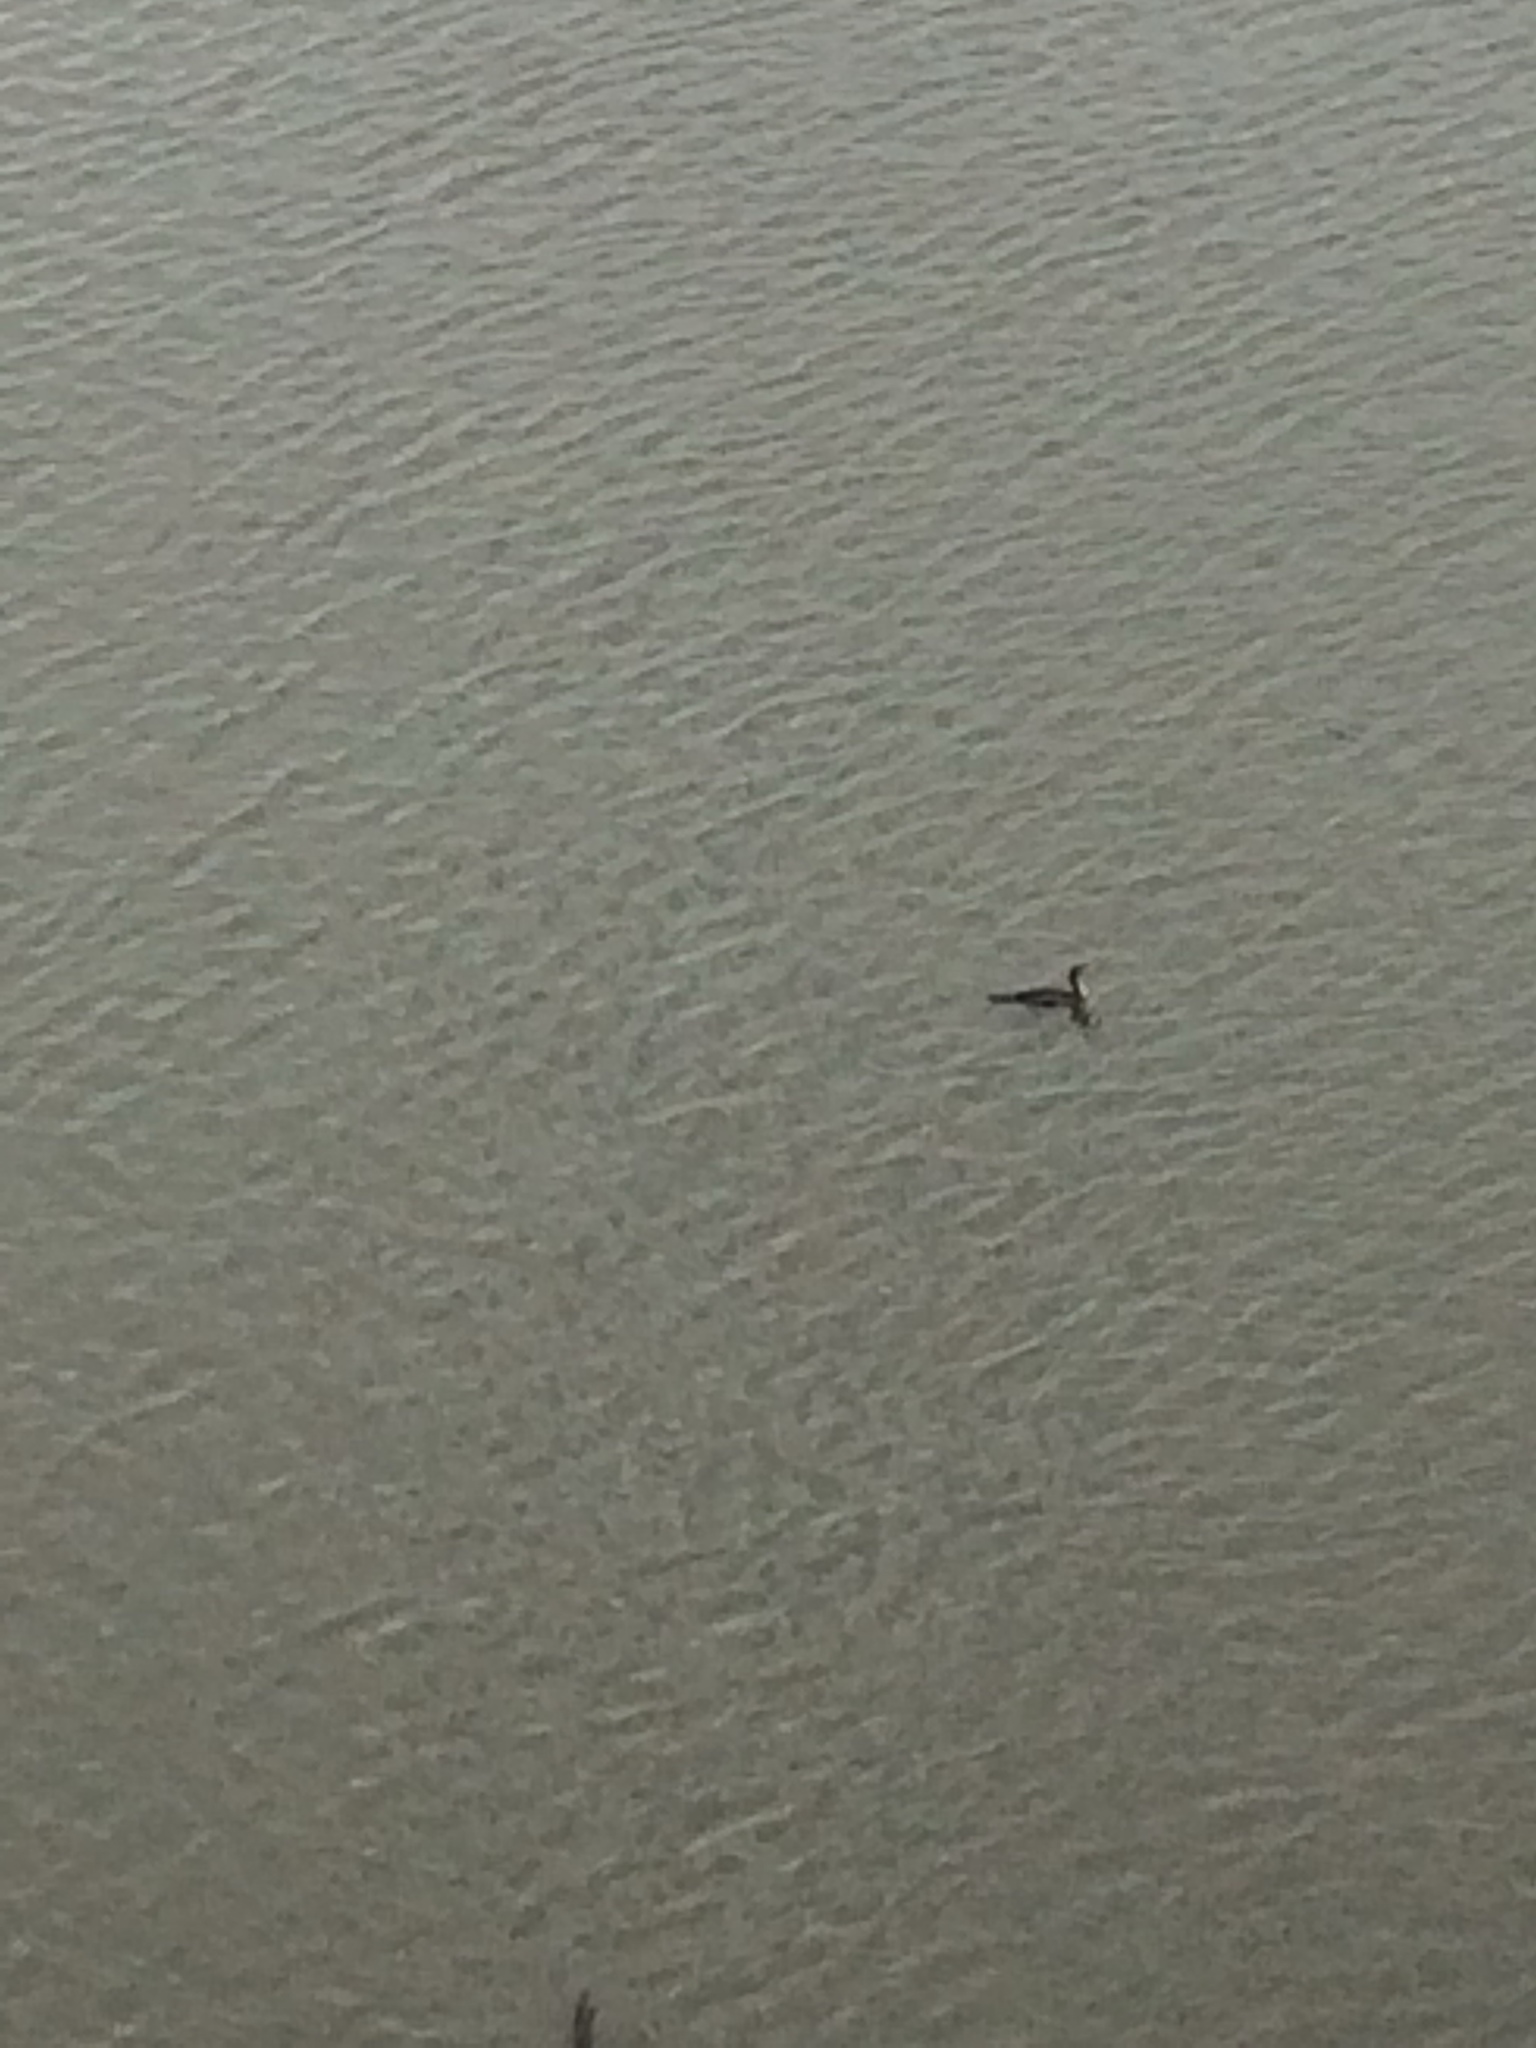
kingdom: Animalia
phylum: Chordata
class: Aves
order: Suliformes
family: Phalacrocoracidae
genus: Phalacrocorax
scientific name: Phalacrocorax auritus
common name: Double-crested cormorant
